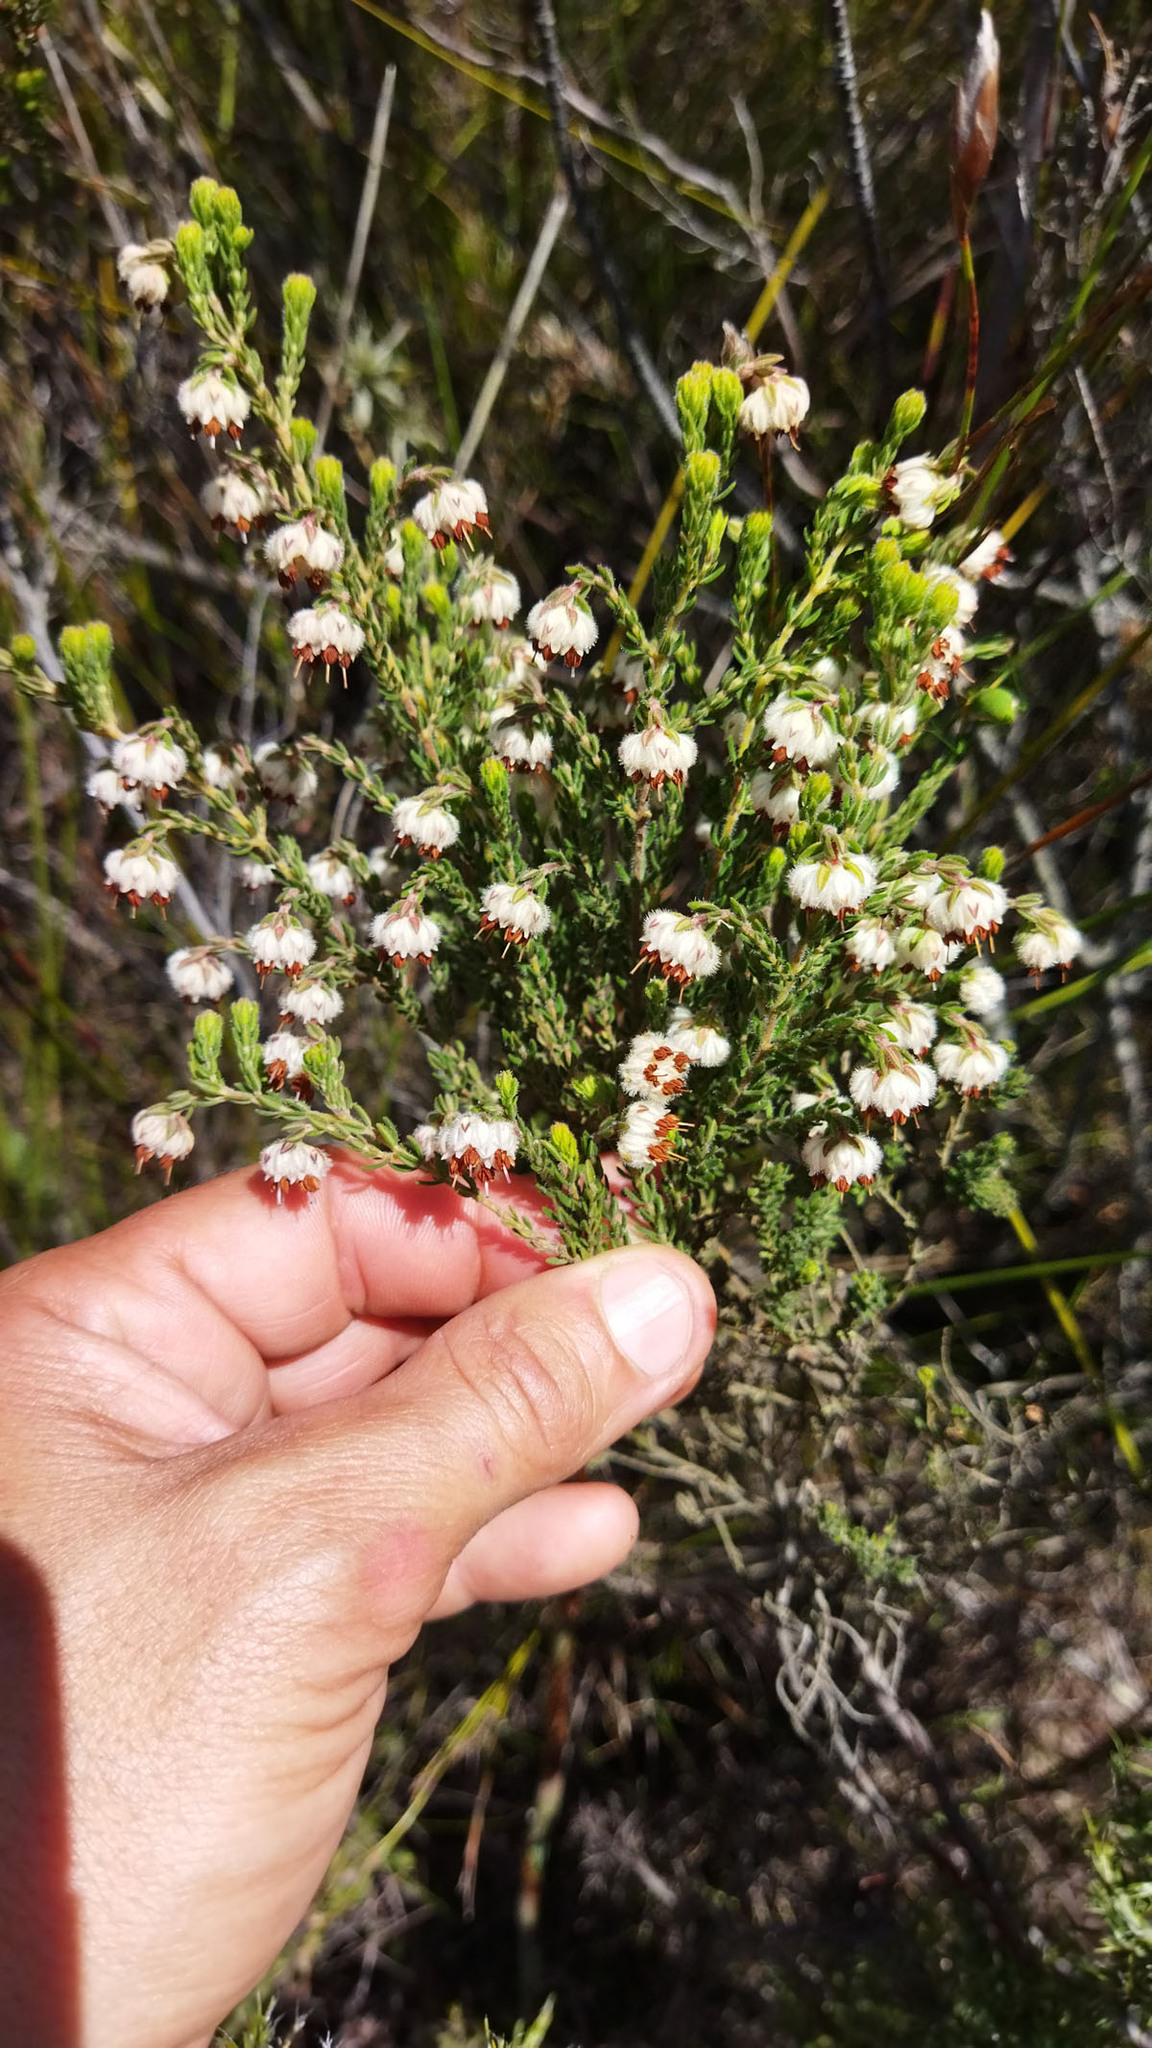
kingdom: Plantae
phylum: Tracheophyta
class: Magnoliopsida
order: Ericales
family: Ericaceae
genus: Erica
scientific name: Erica flaccida
